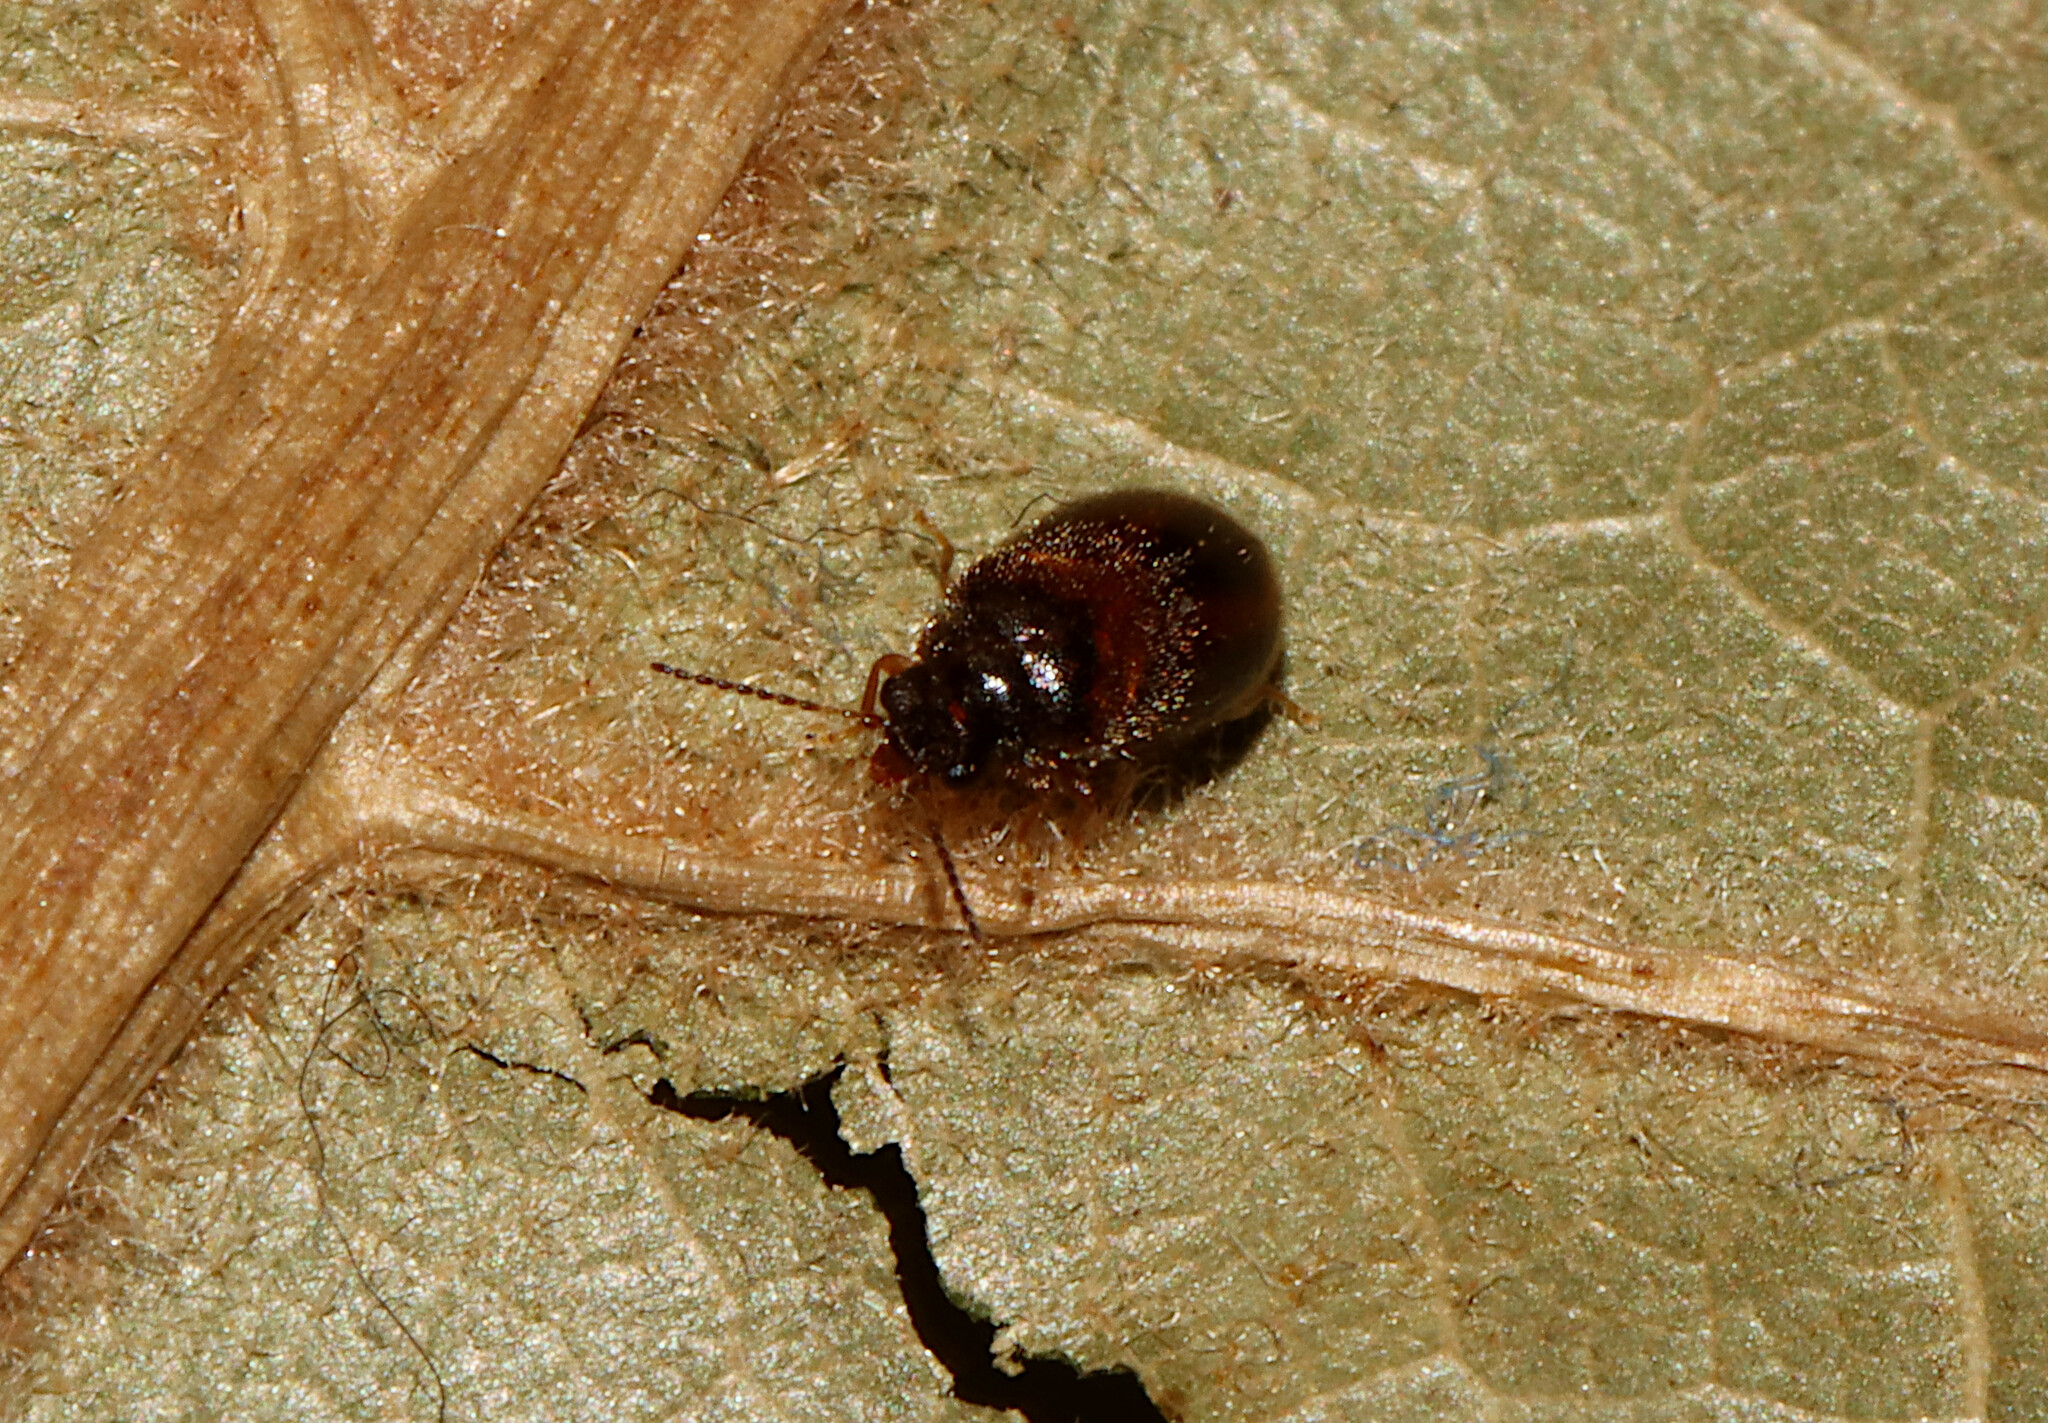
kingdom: Animalia
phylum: Arthropoda
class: Insecta
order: Coleoptera
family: Scirtidae
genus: Contacyphon
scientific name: Contacyphon
